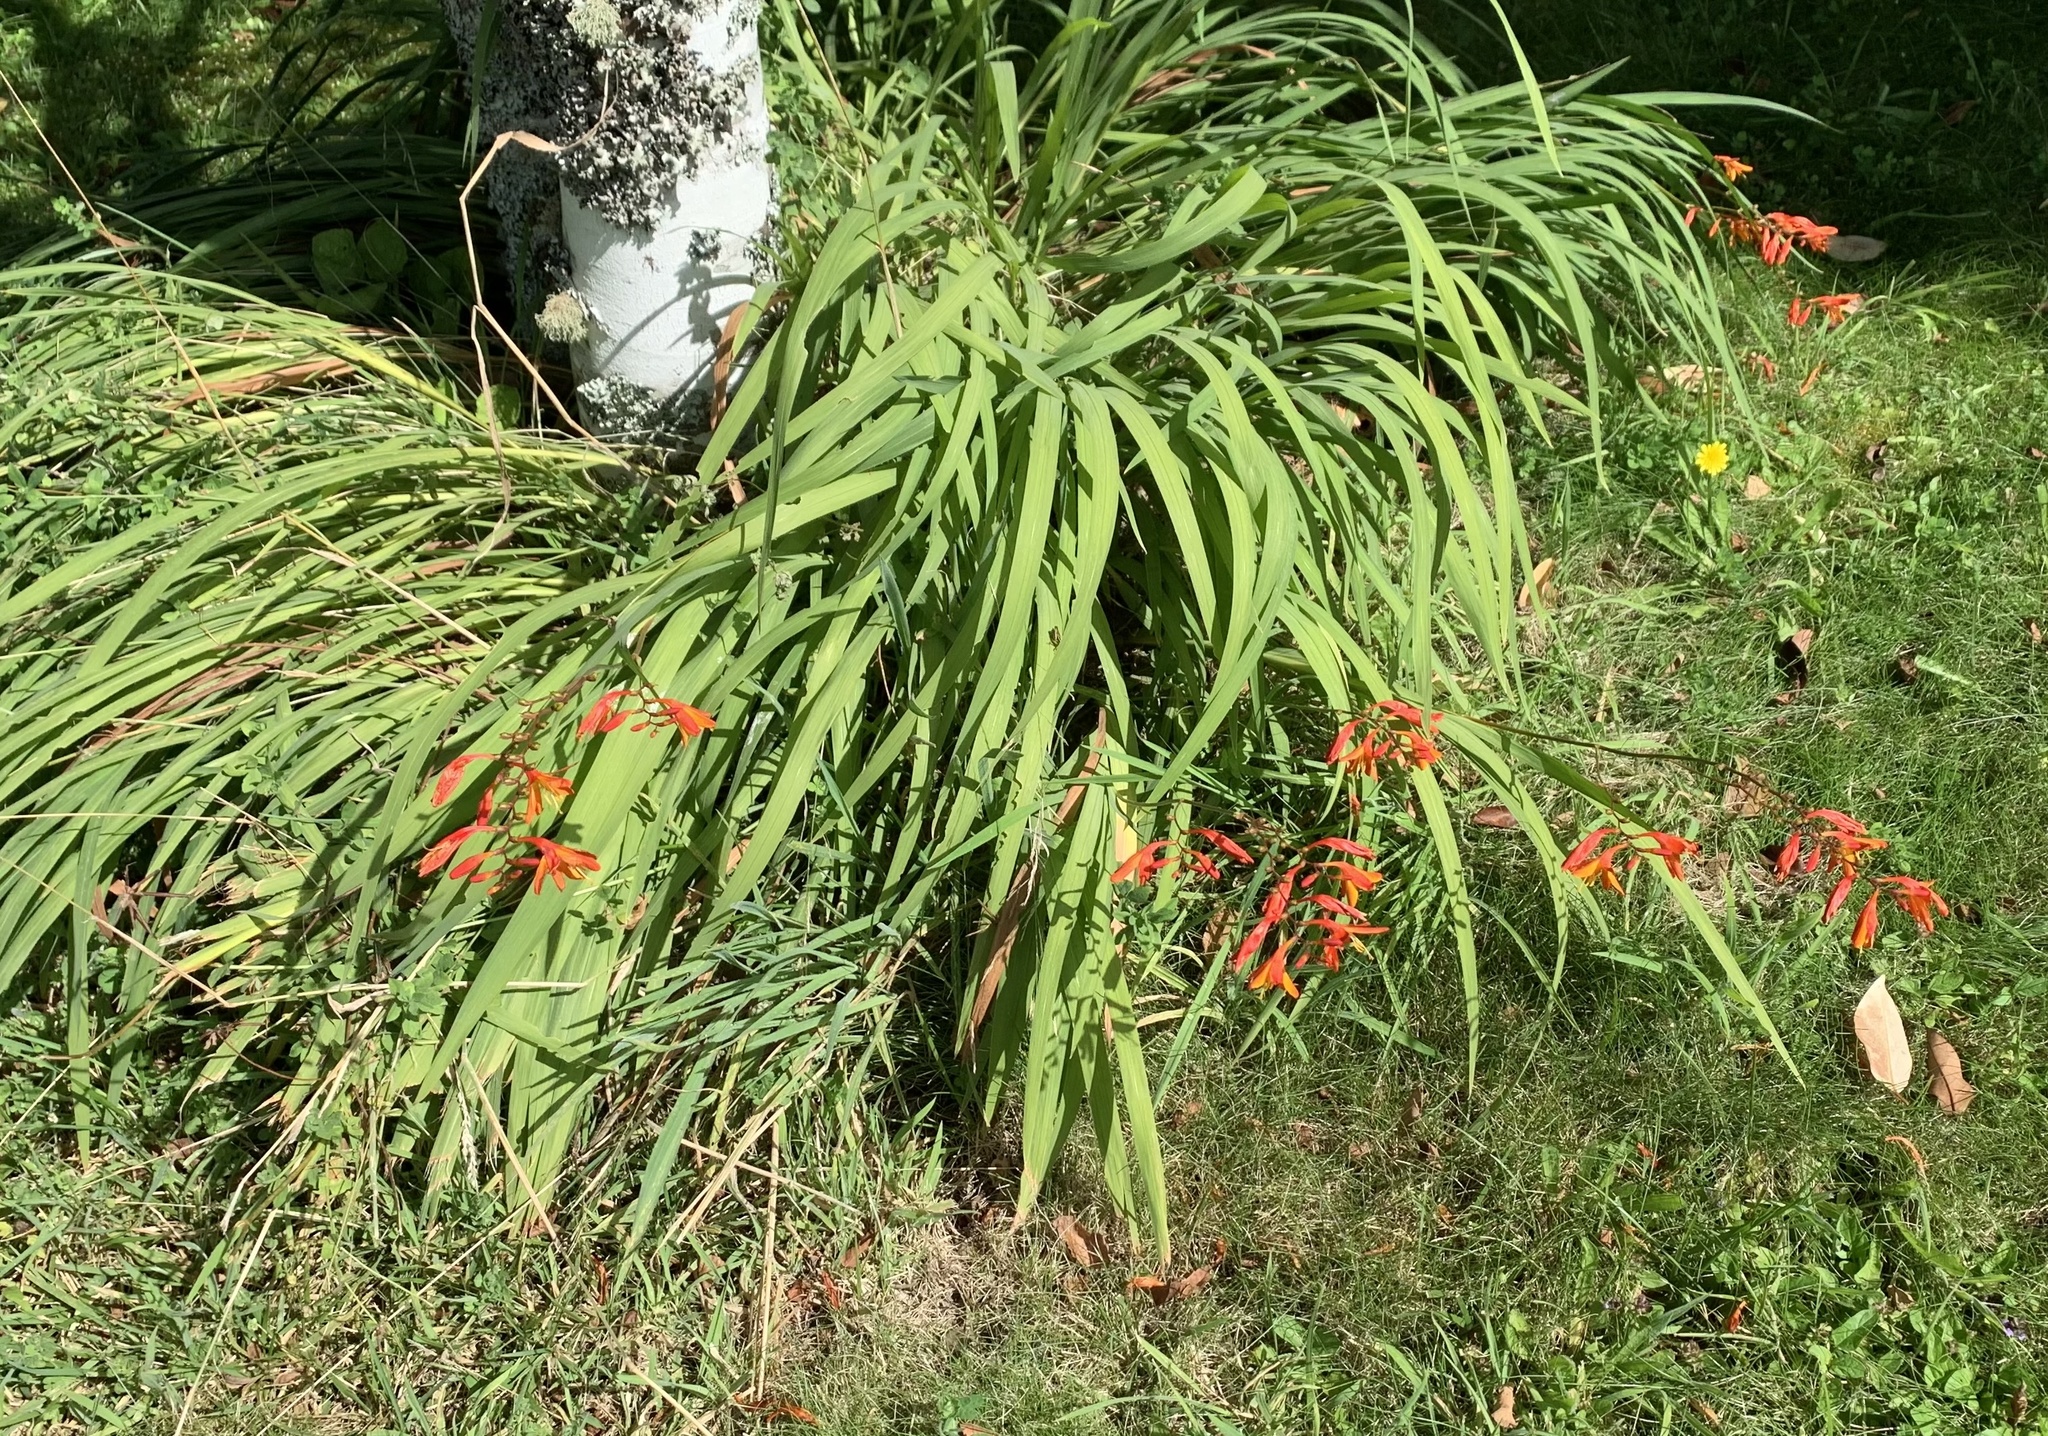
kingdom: Plantae
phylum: Tracheophyta
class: Liliopsida
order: Asparagales
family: Iridaceae
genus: Crocosmia
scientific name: Crocosmia crocosmiiflora
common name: Montbretia
